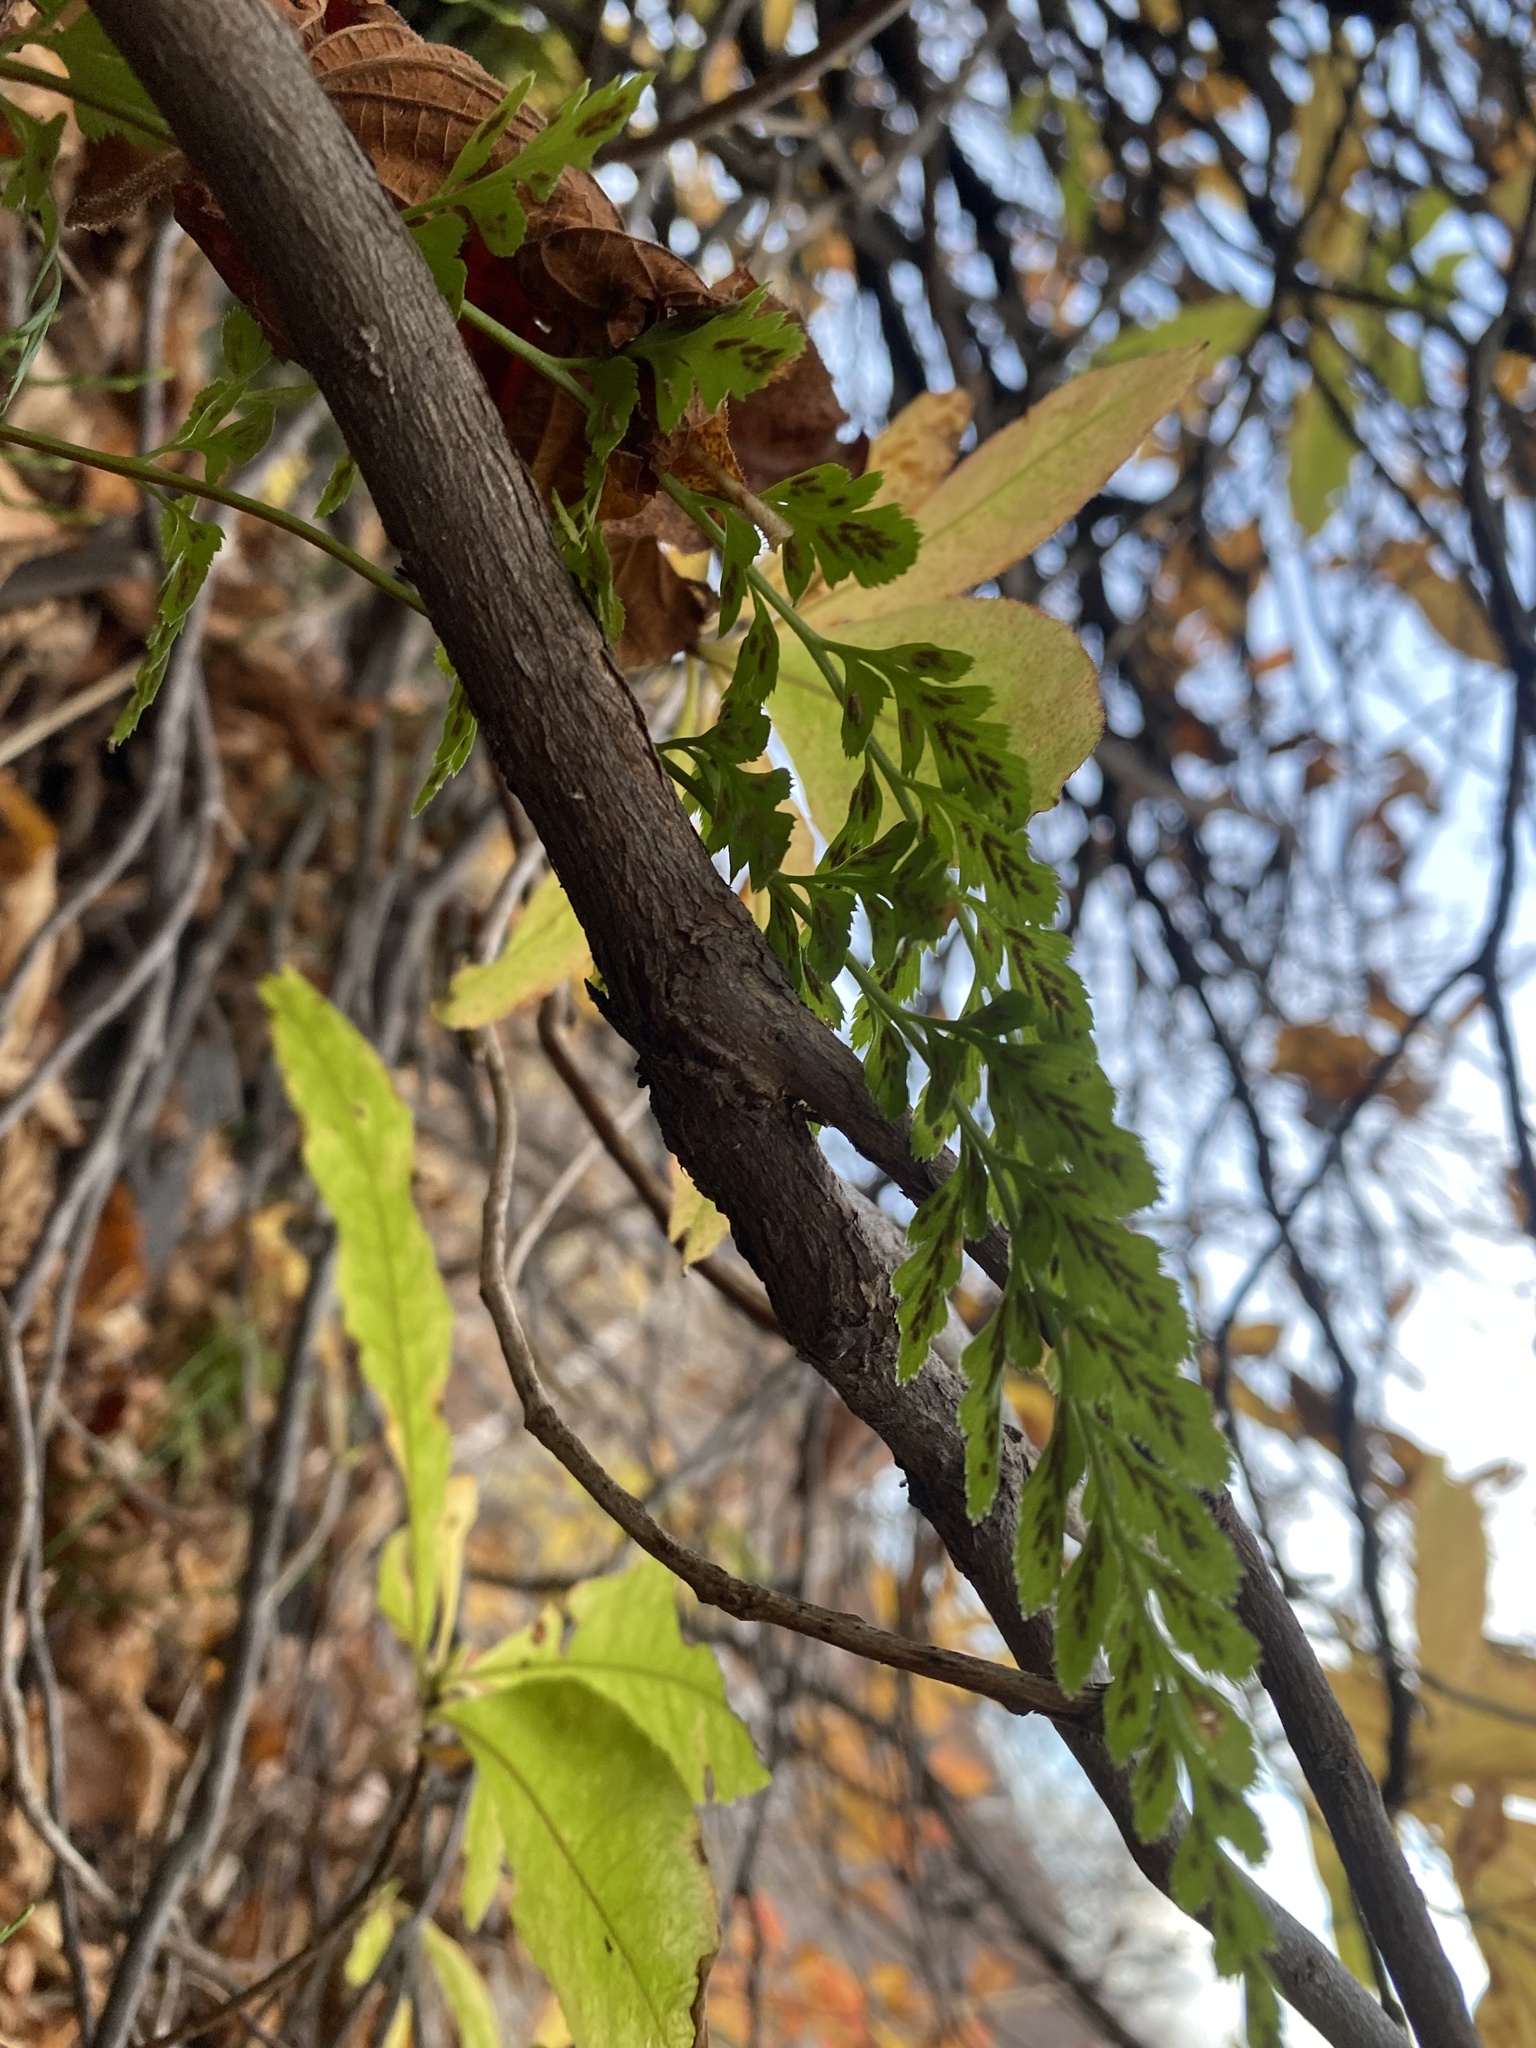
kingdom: Plantae
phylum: Tracheophyta
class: Polypodiopsida
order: Polypodiales
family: Aspleniaceae
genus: Asplenium
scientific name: Asplenium adiantum-nigrum
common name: Black spleenwort
